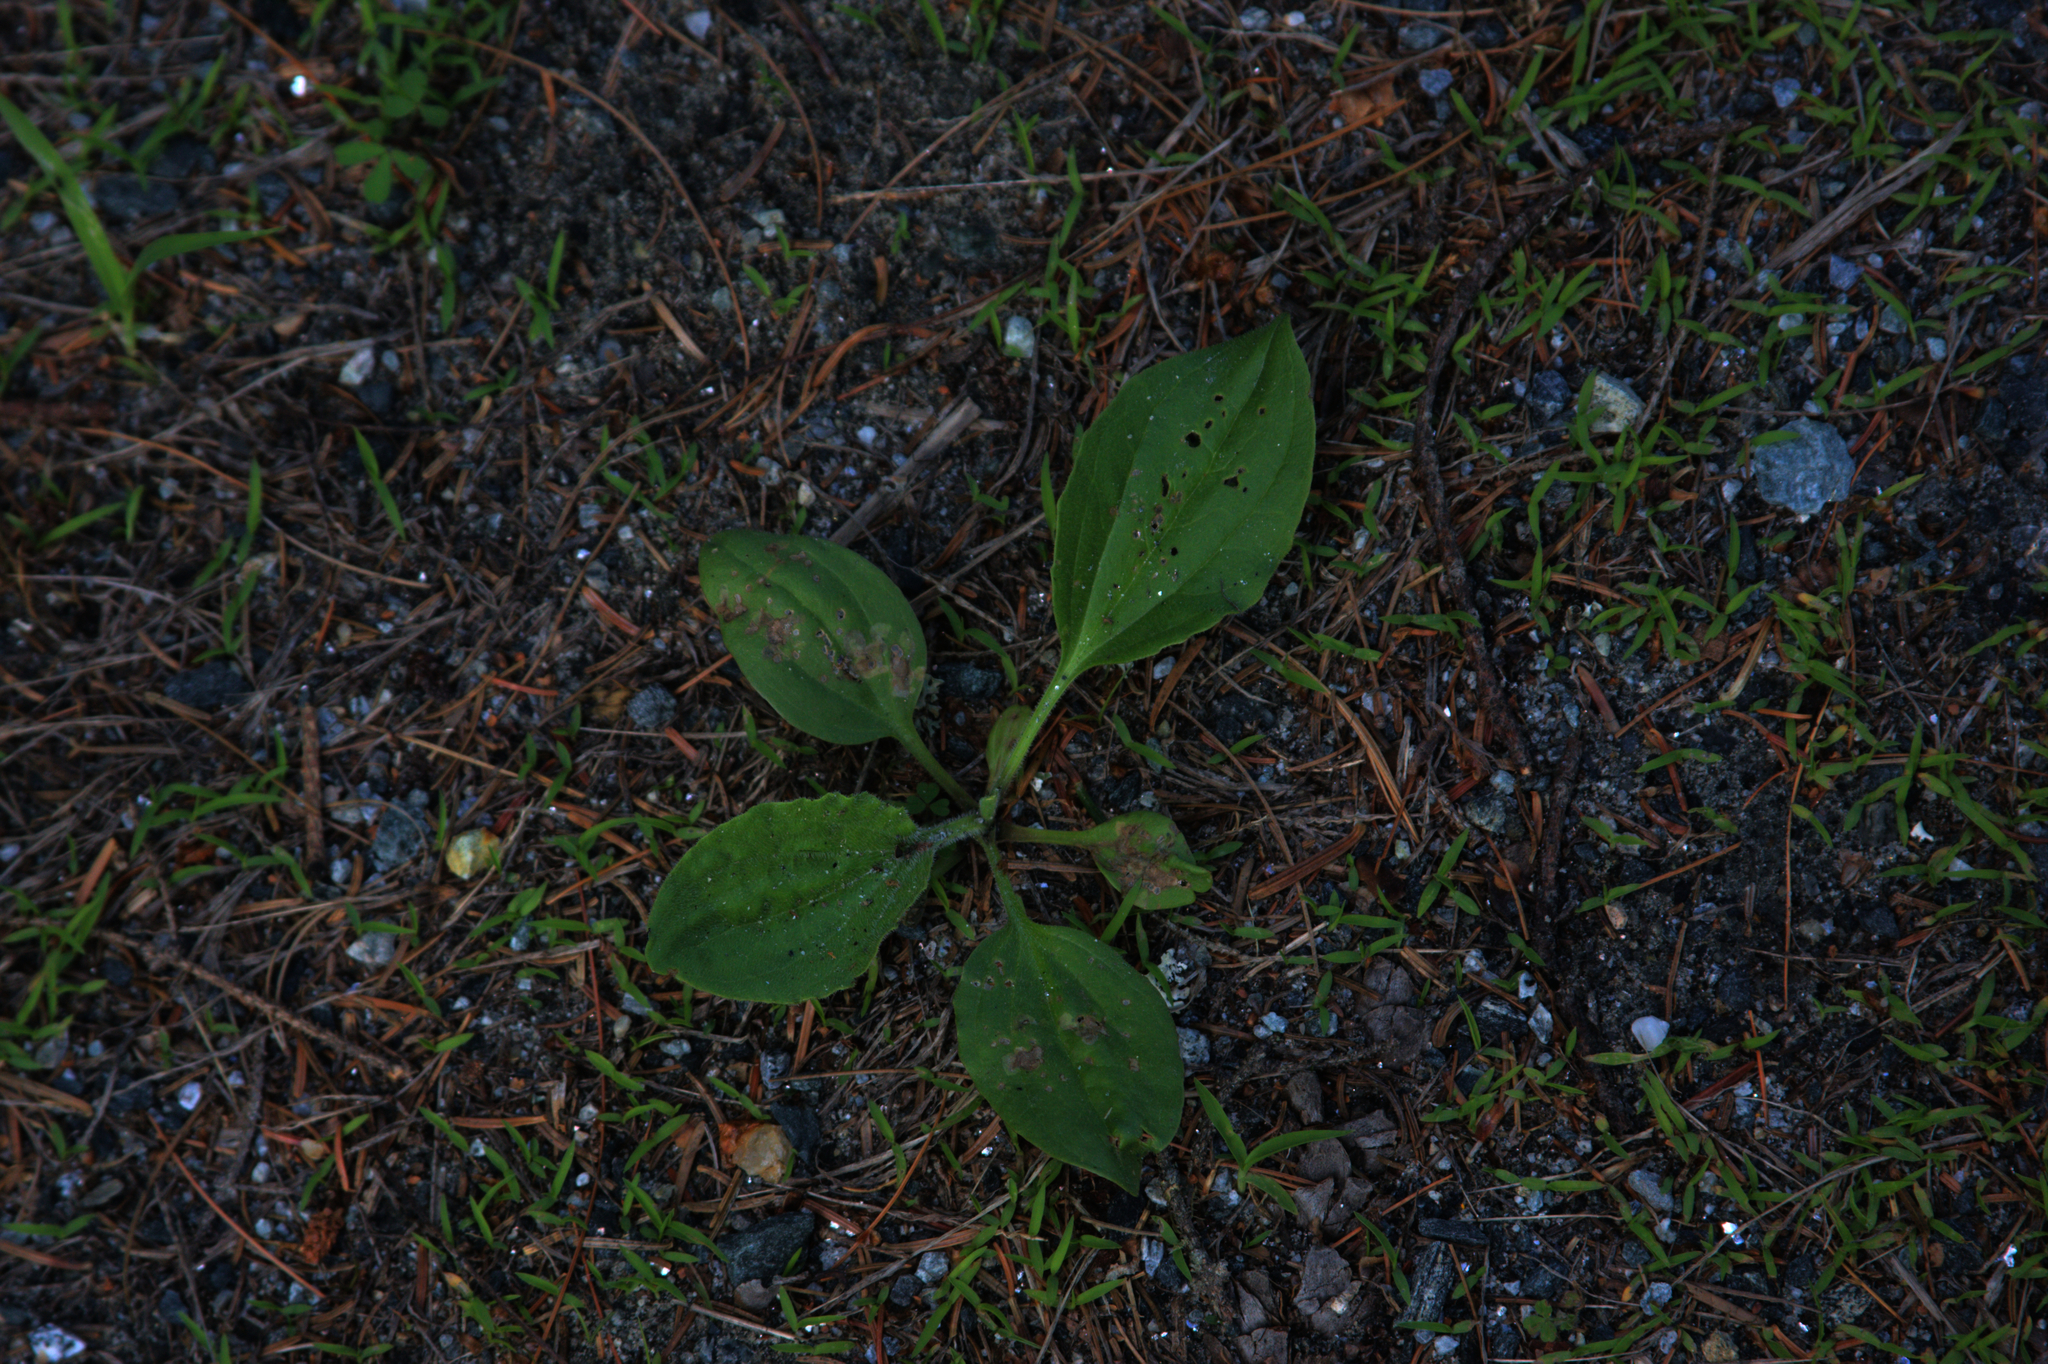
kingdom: Plantae
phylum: Tracheophyta
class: Magnoliopsida
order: Lamiales
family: Plantaginaceae
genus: Plantago
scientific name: Plantago major
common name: Common plantain
